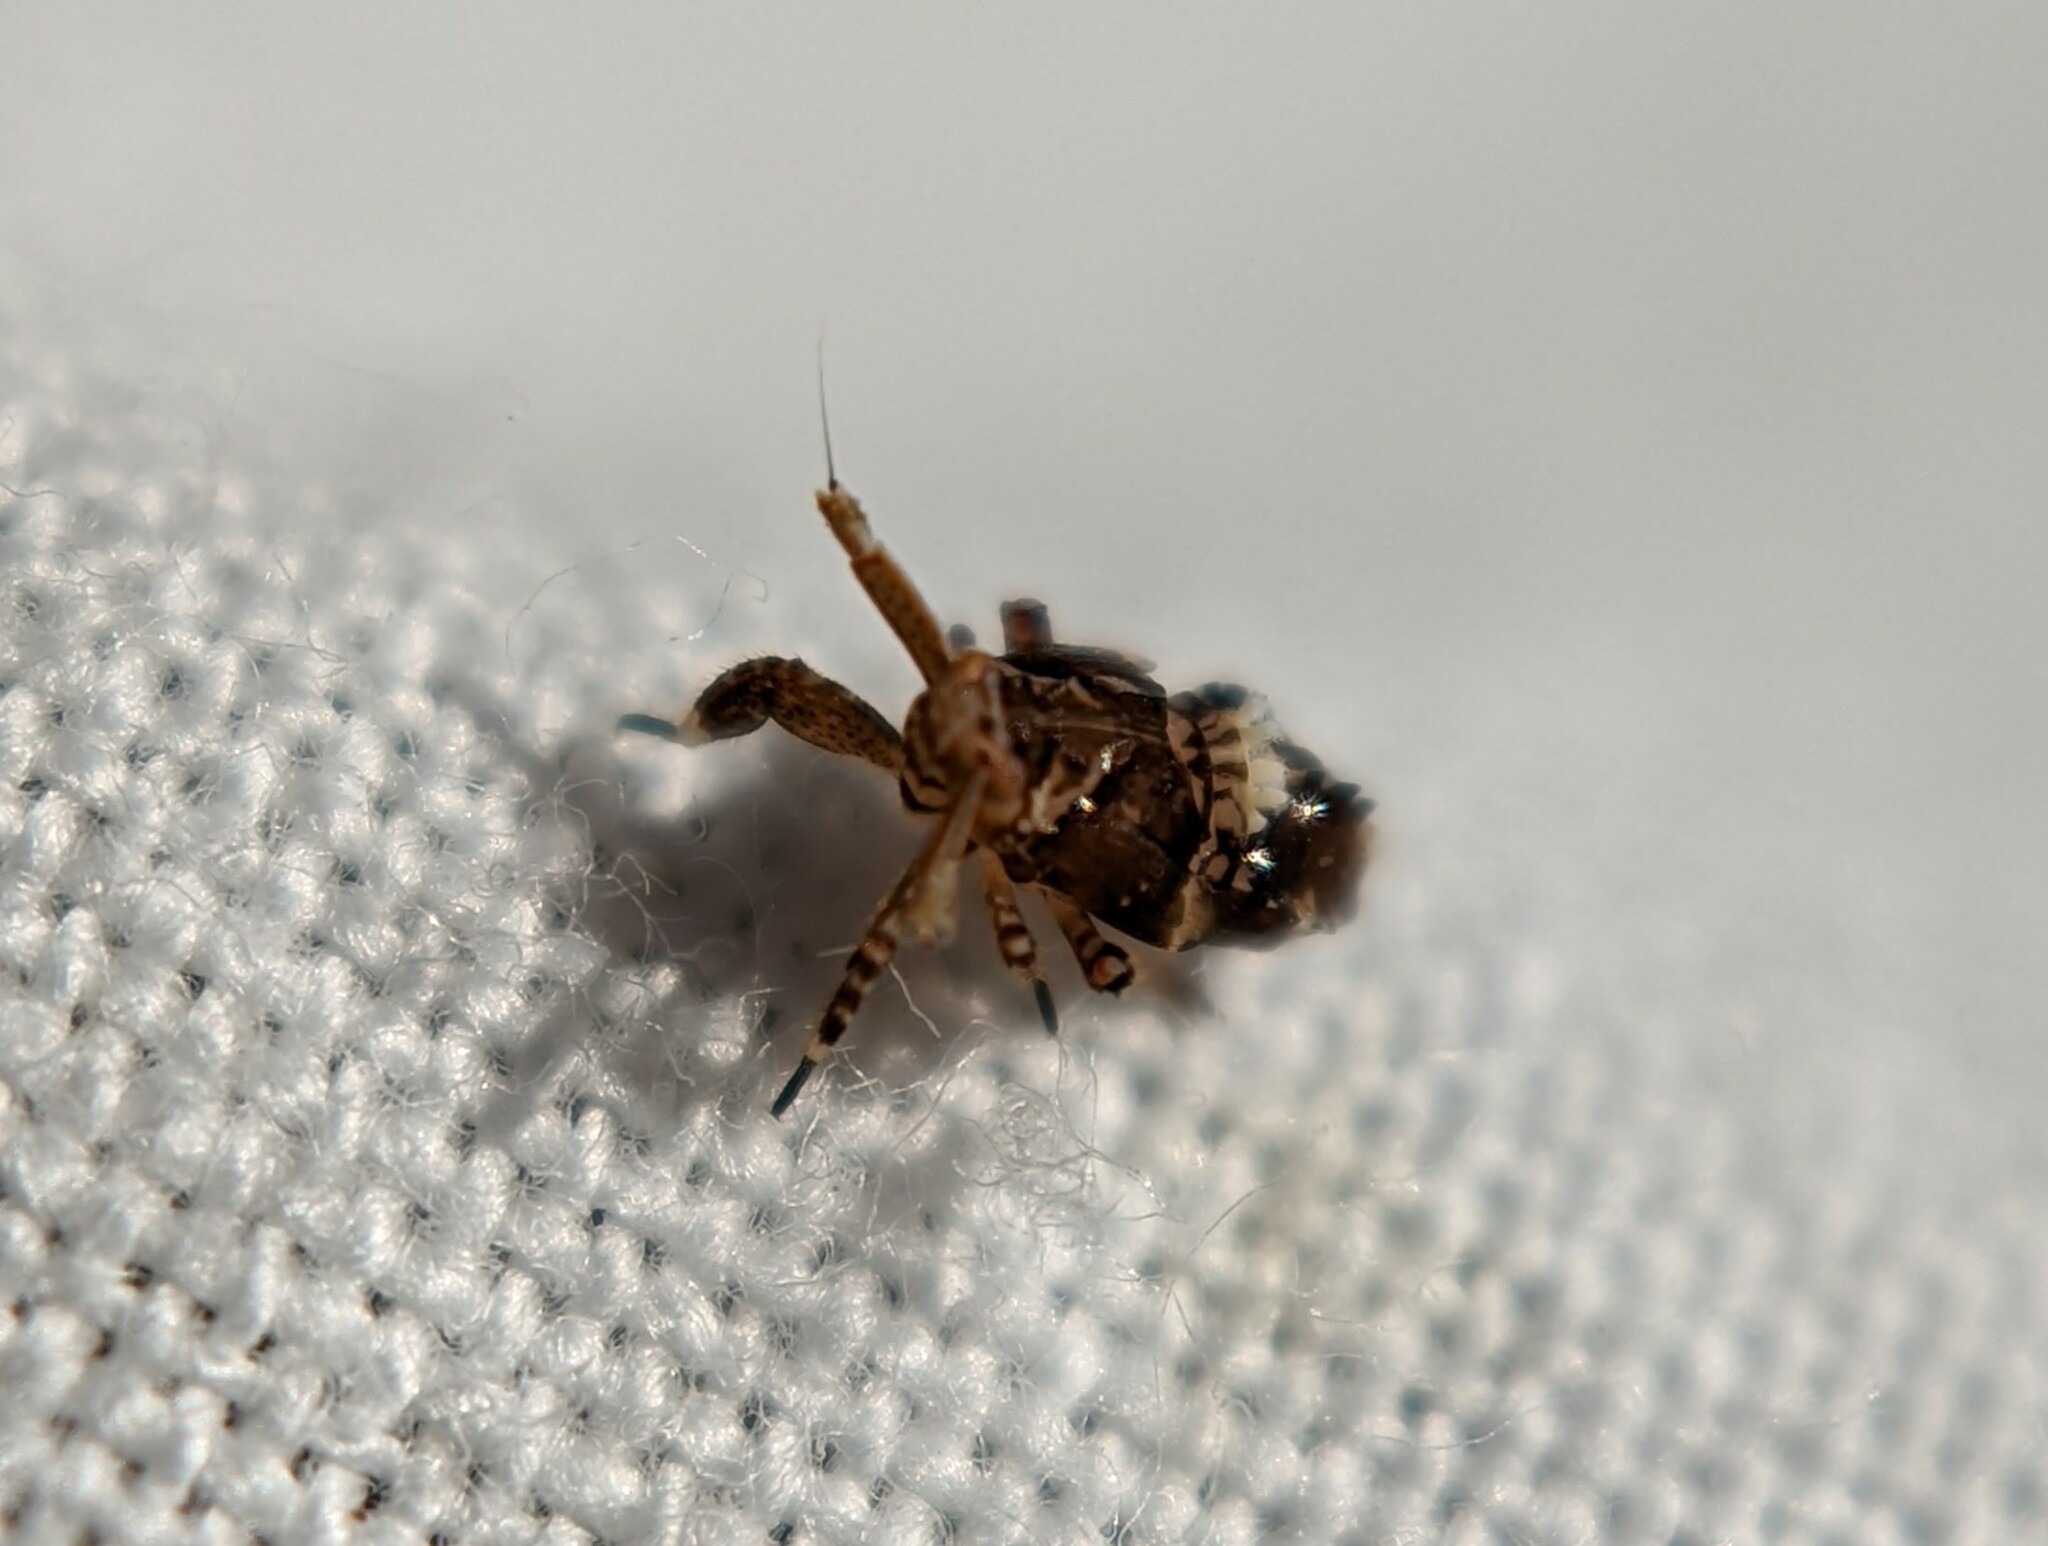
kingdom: Animalia
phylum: Arthropoda
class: Insecta
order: Hemiptera
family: Delphacidae
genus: Asiraca
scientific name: Asiraca clavicornis
